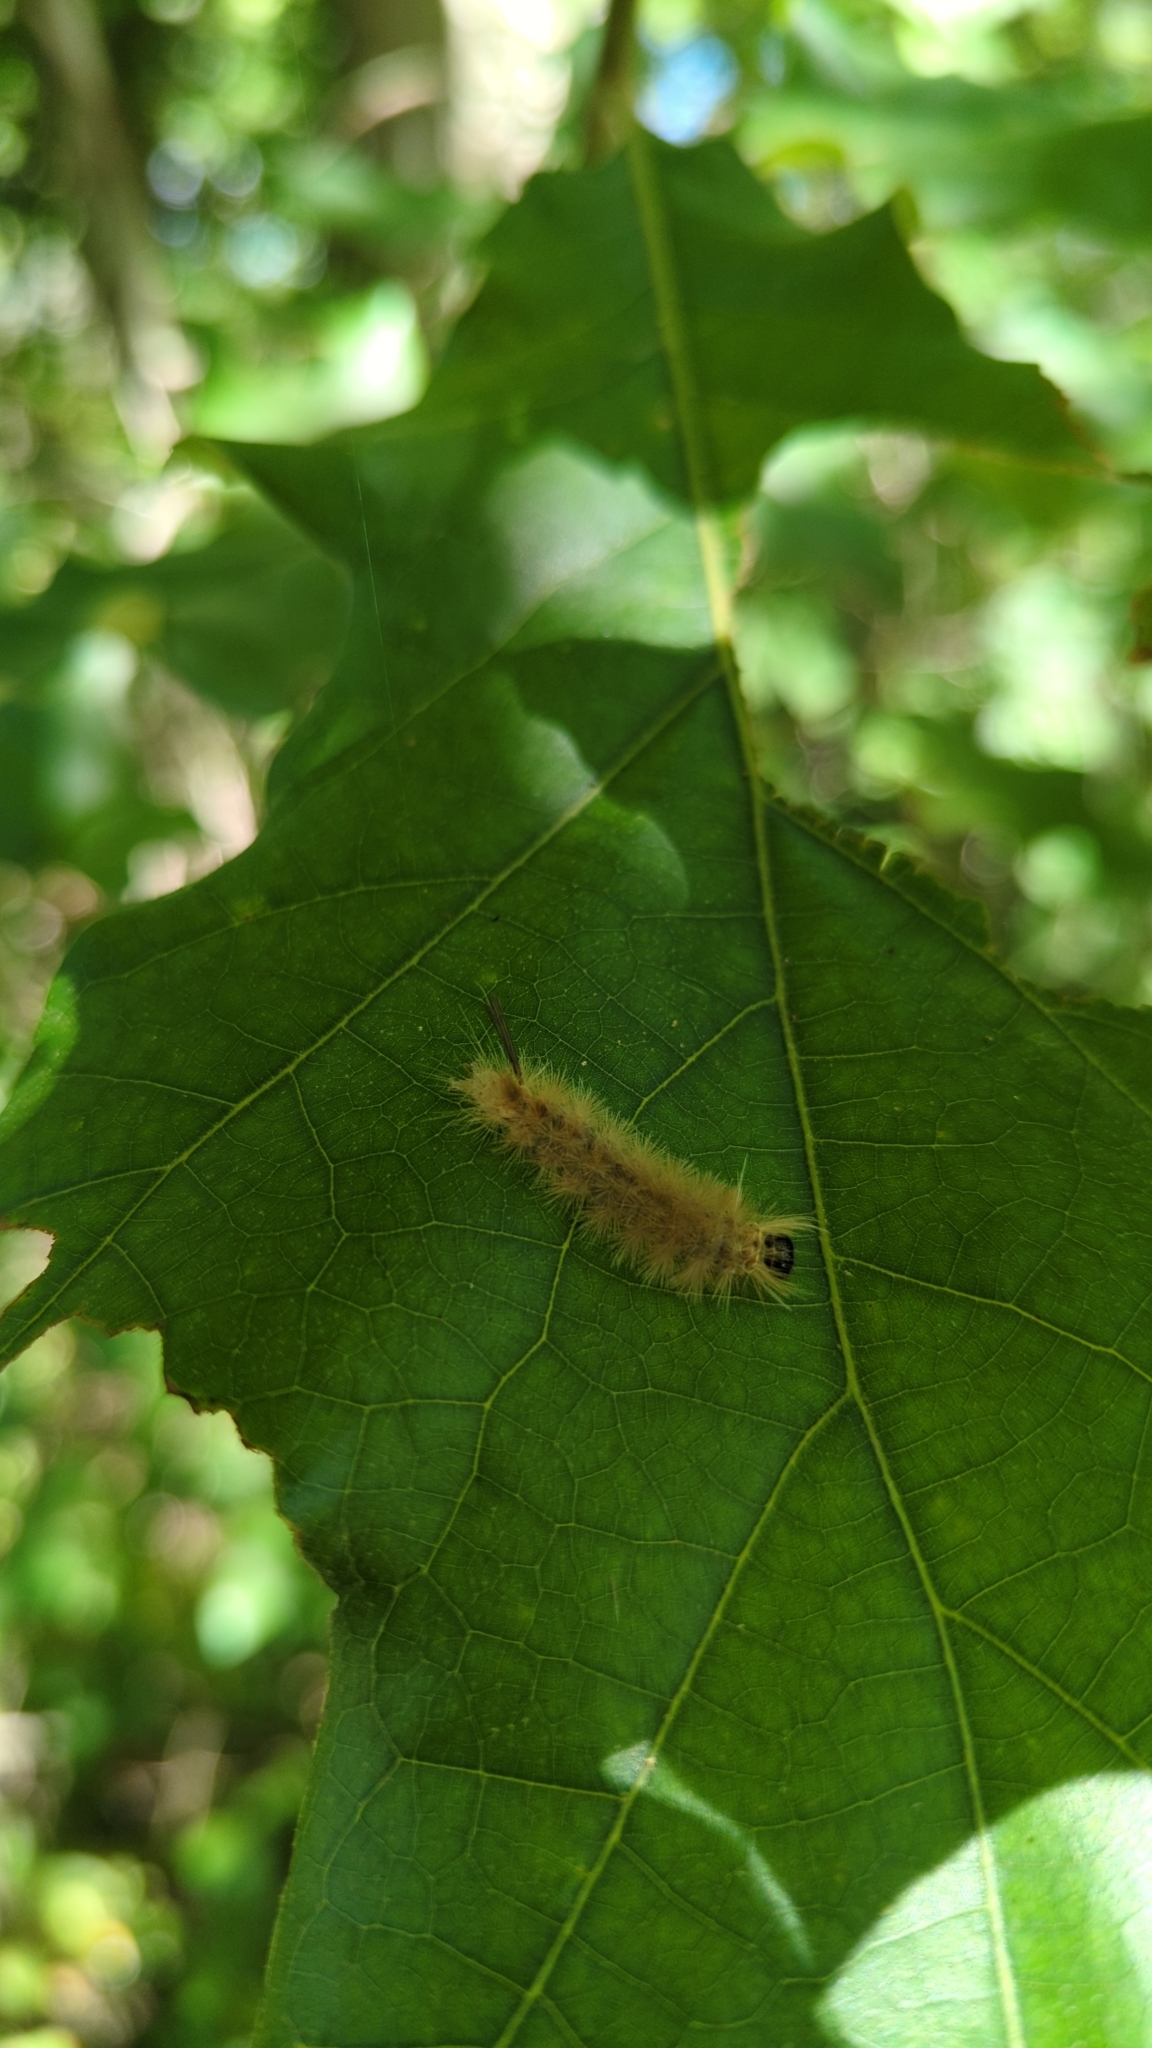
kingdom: Animalia
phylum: Arthropoda
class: Insecta
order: Lepidoptera
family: Erebidae
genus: Halysidota
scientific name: Halysidota tessellaris
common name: Banded tussock moth
